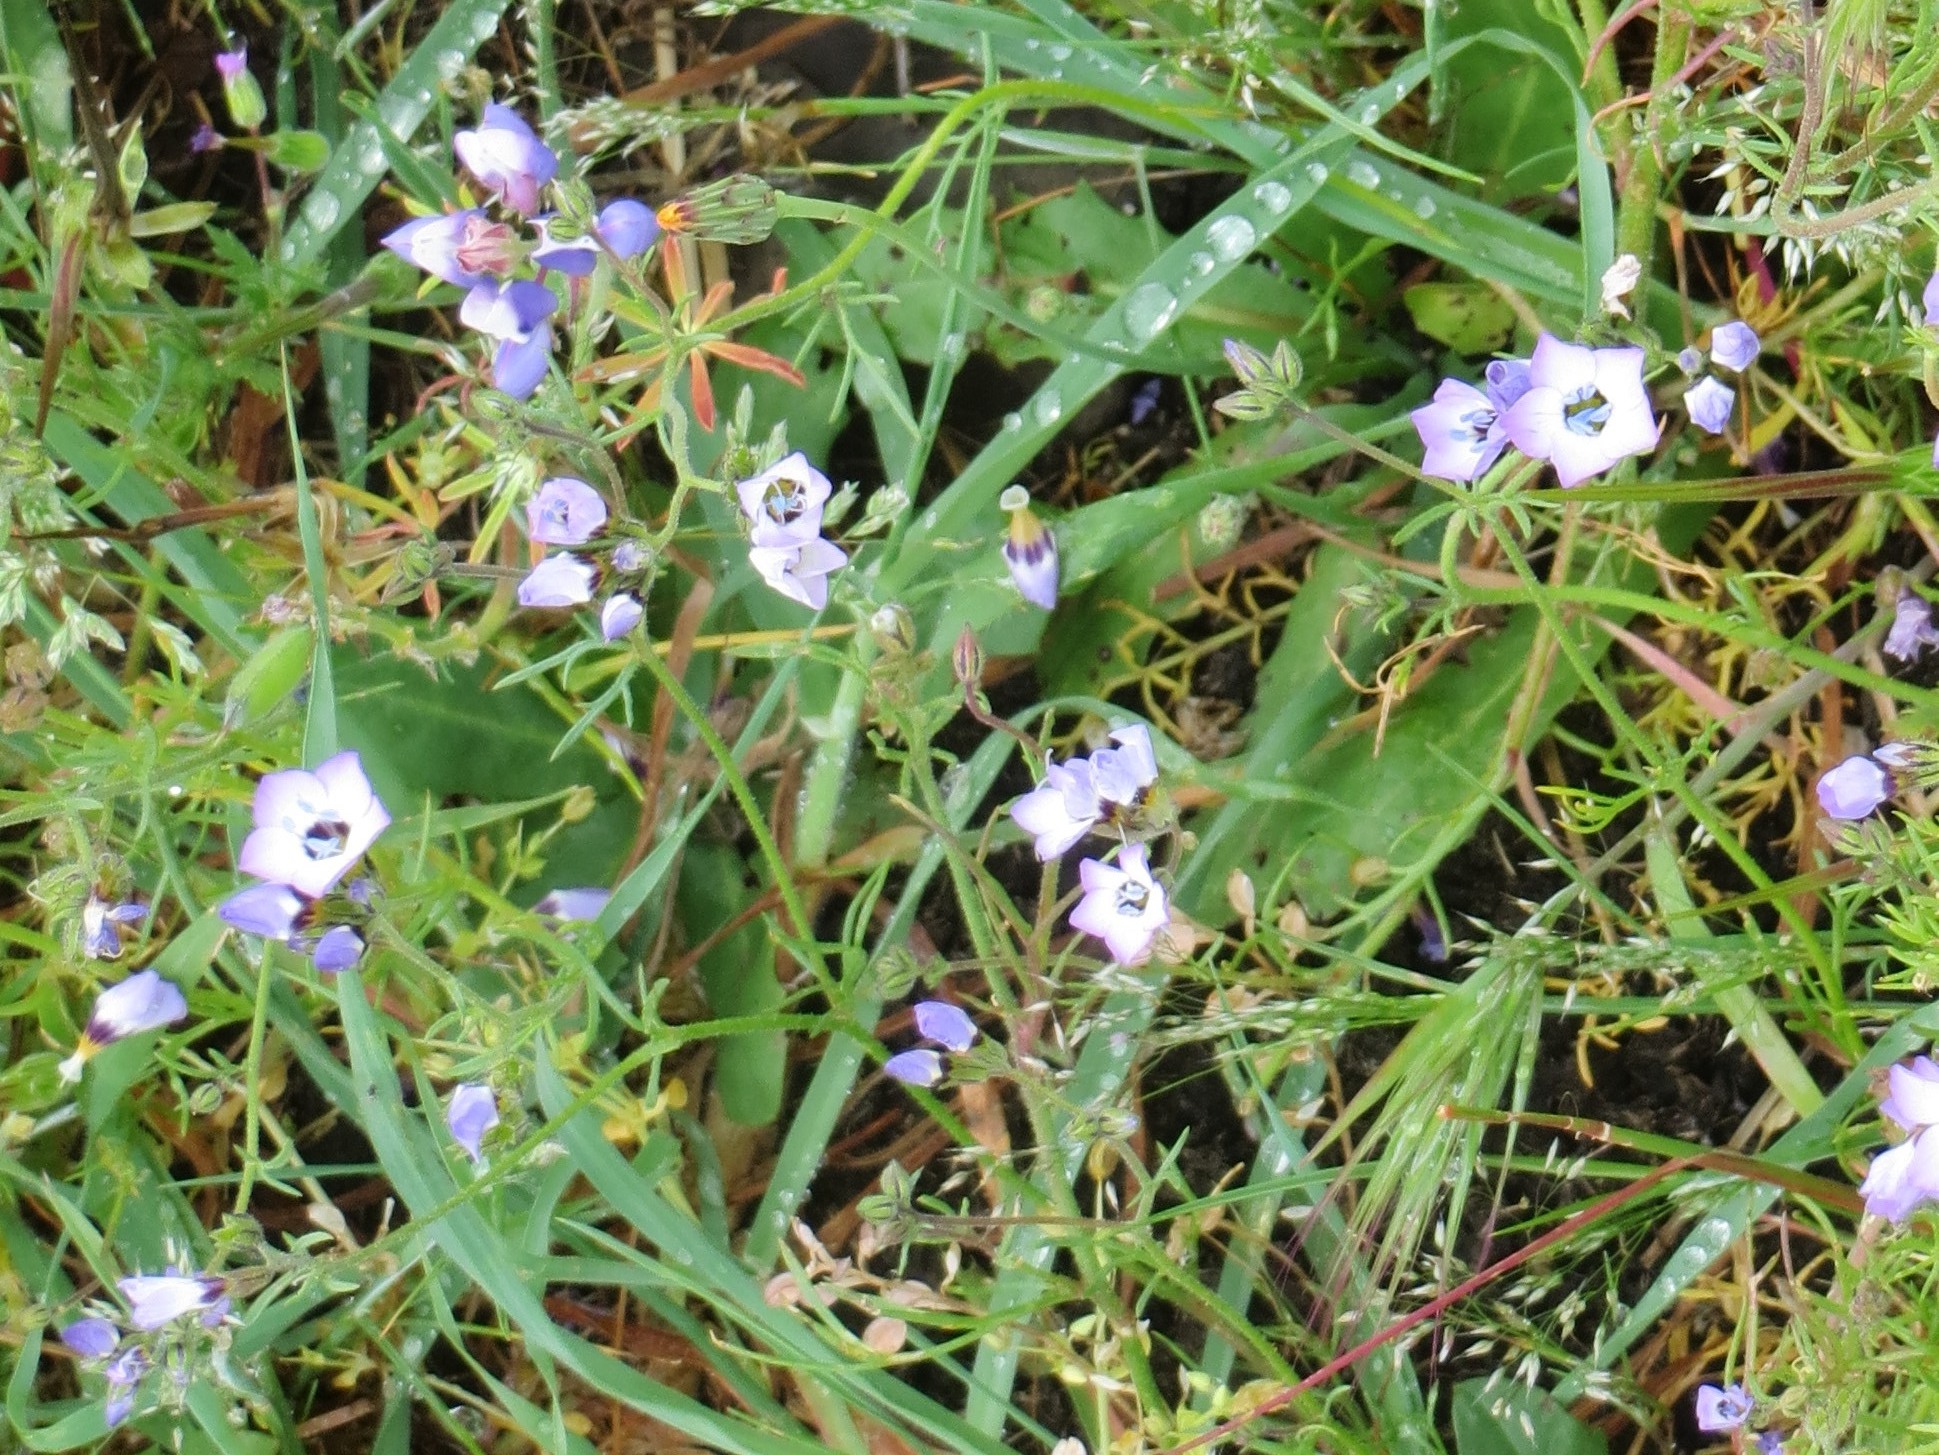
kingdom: Plantae
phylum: Tracheophyta
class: Magnoliopsida
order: Ericales
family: Polemoniaceae
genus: Gilia
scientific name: Gilia tricolor
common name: Bird's-eyes
